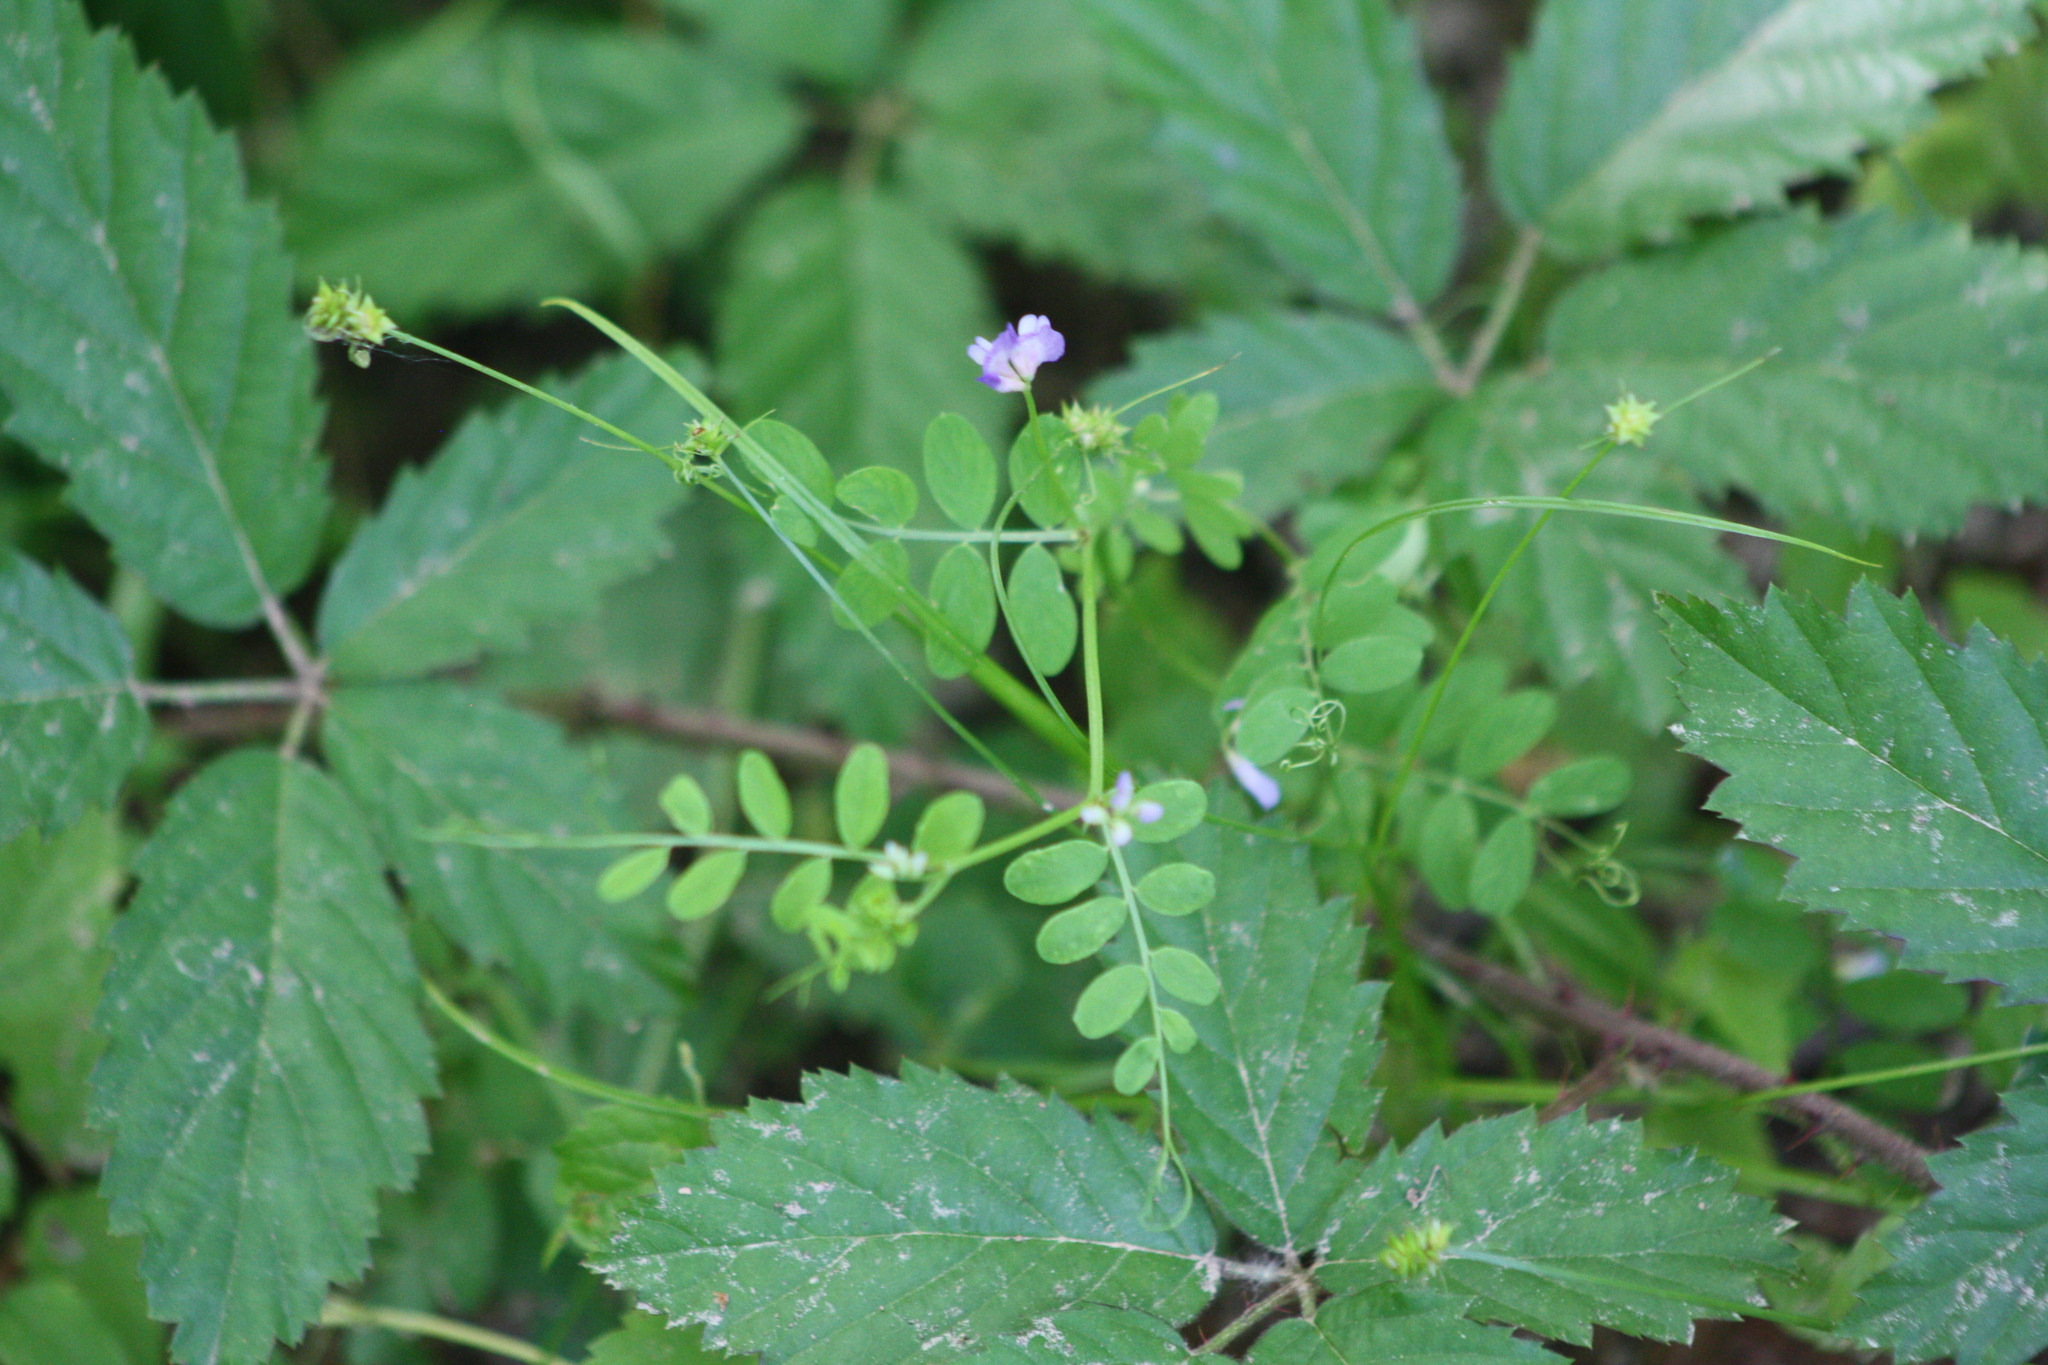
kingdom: Plantae
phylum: Tracheophyta
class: Magnoliopsida
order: Fabales
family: Fabaceae
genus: Vicia
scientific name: Vicia ludoviciana
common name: Louisiana vetch
